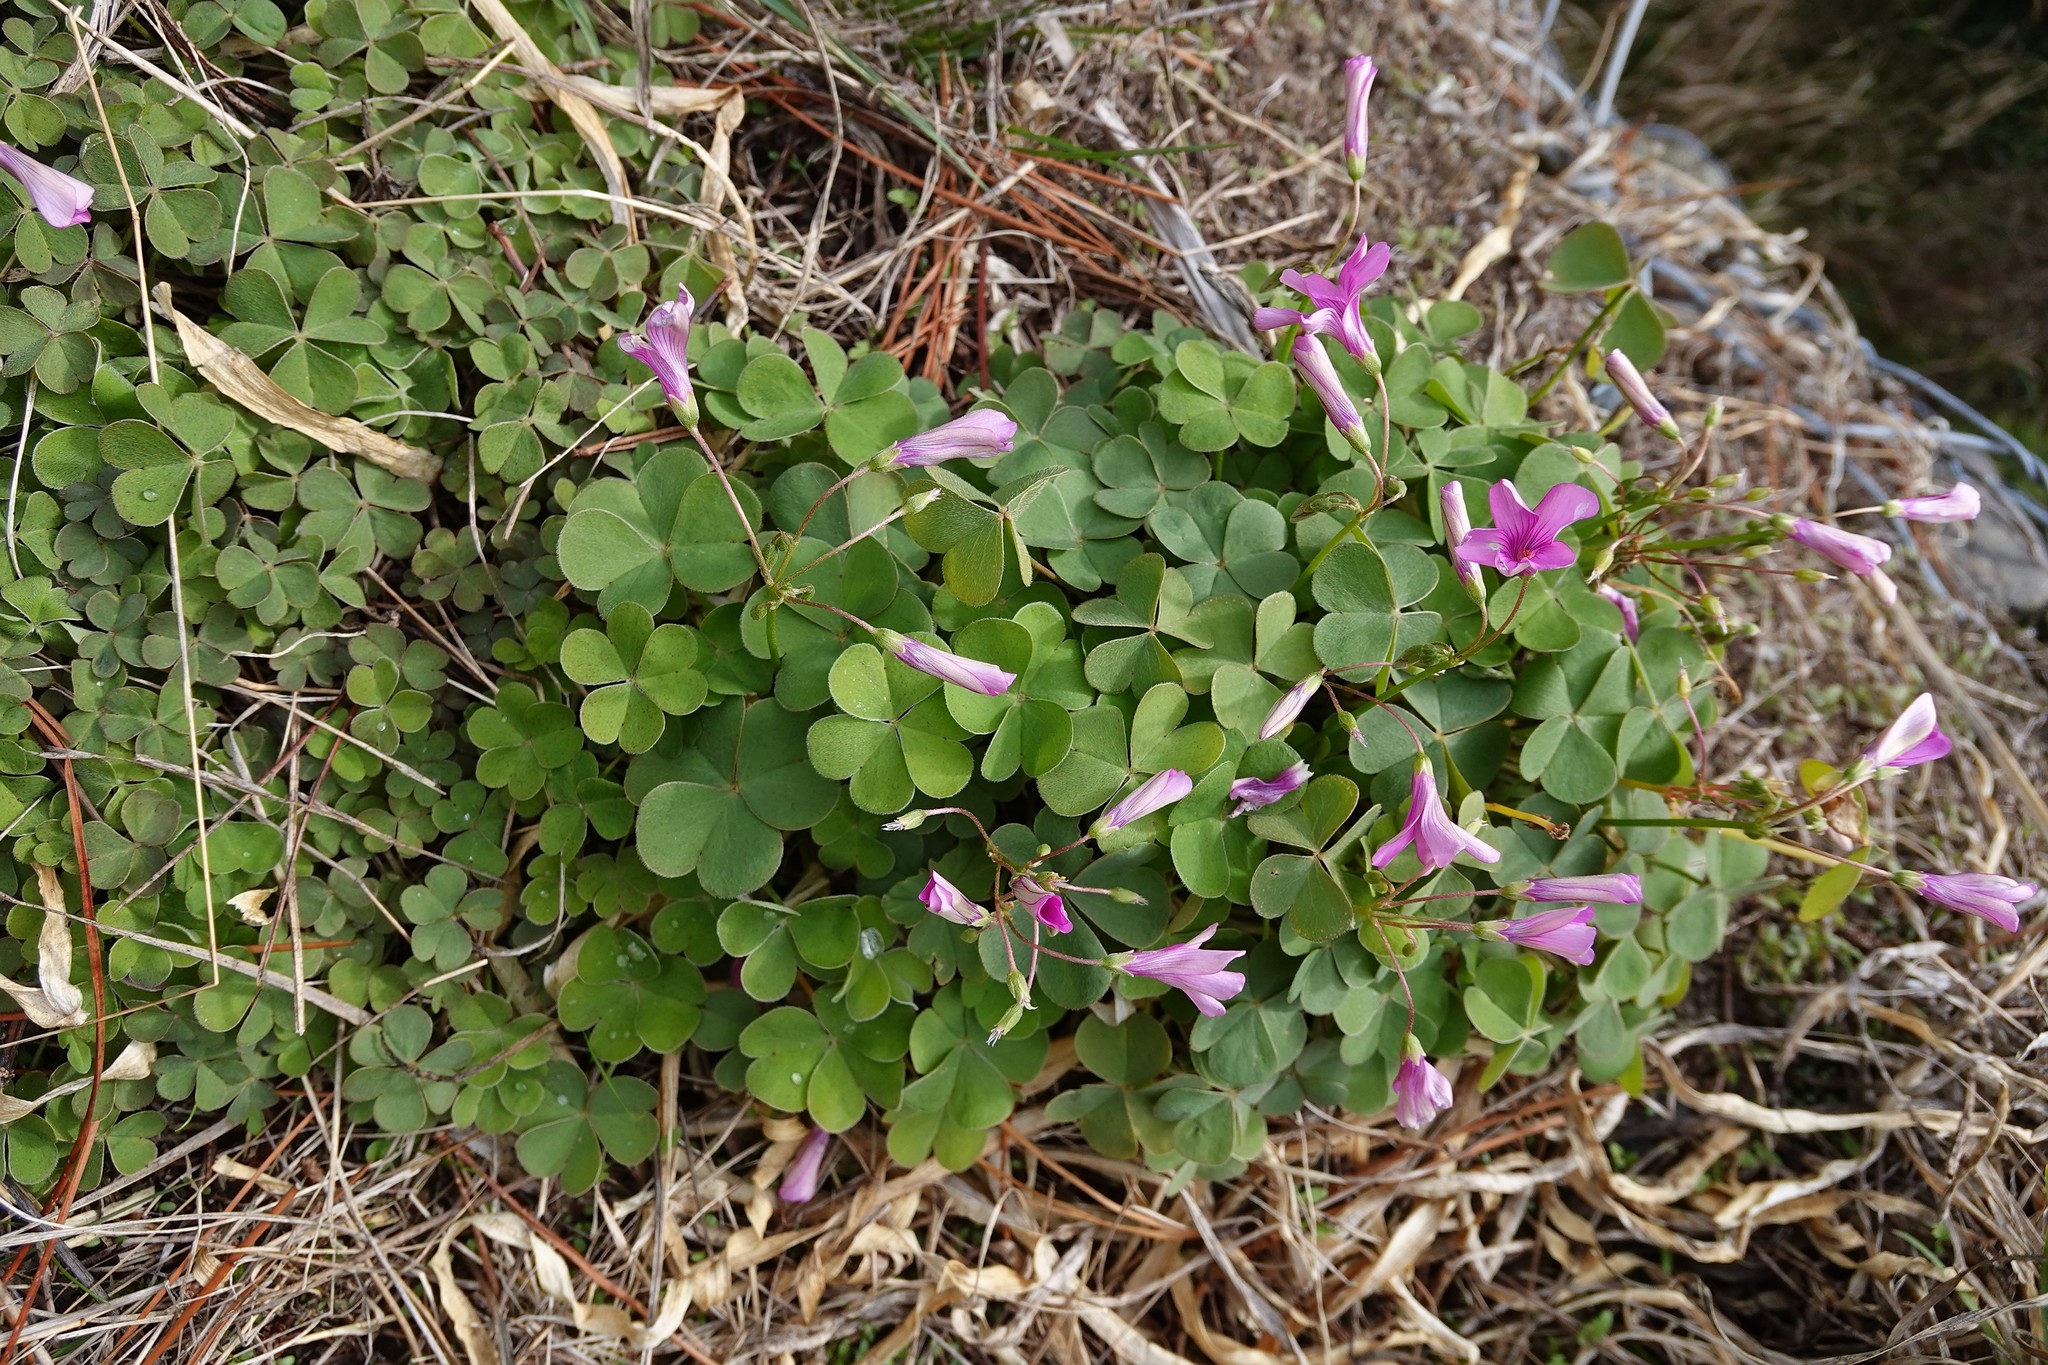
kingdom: Plantae
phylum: Tracheophyta
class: Magnoliopsida
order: Oxalidales
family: Oxalidaceae
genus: Oxalis
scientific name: Oxalis articulata
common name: Pink-sorrel
